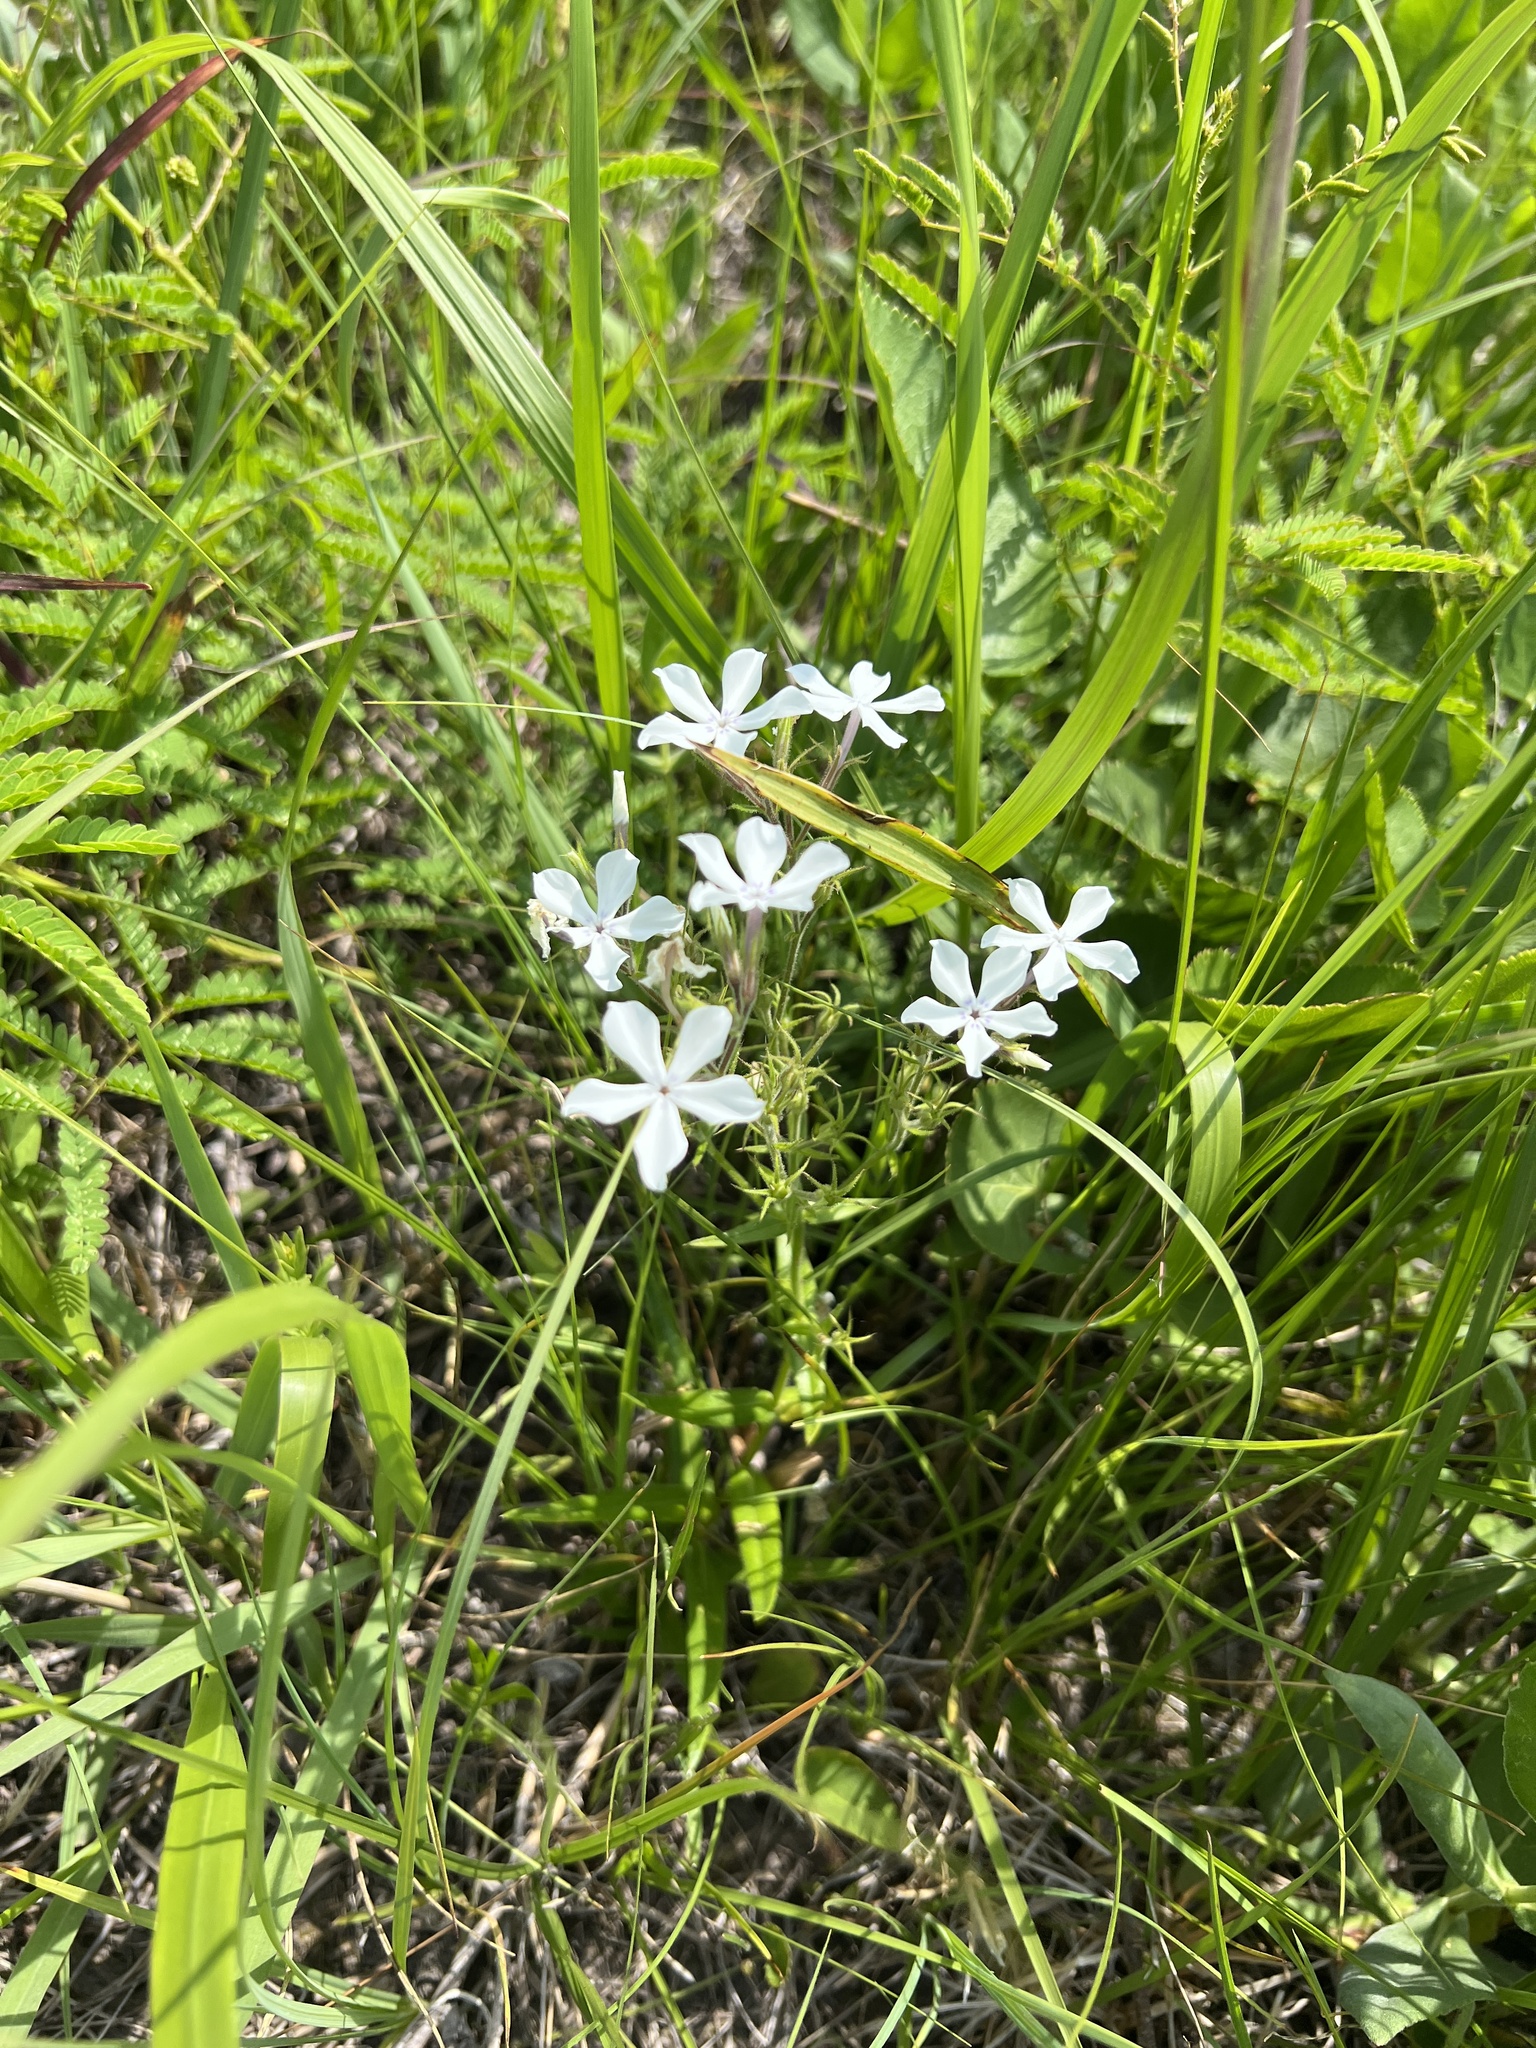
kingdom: Plantae
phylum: Tracheophyta
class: Magnoliopsida
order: Ericales
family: Polemoniaceae
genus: Phlox
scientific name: Phlox pilosa
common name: Prairie phlox
